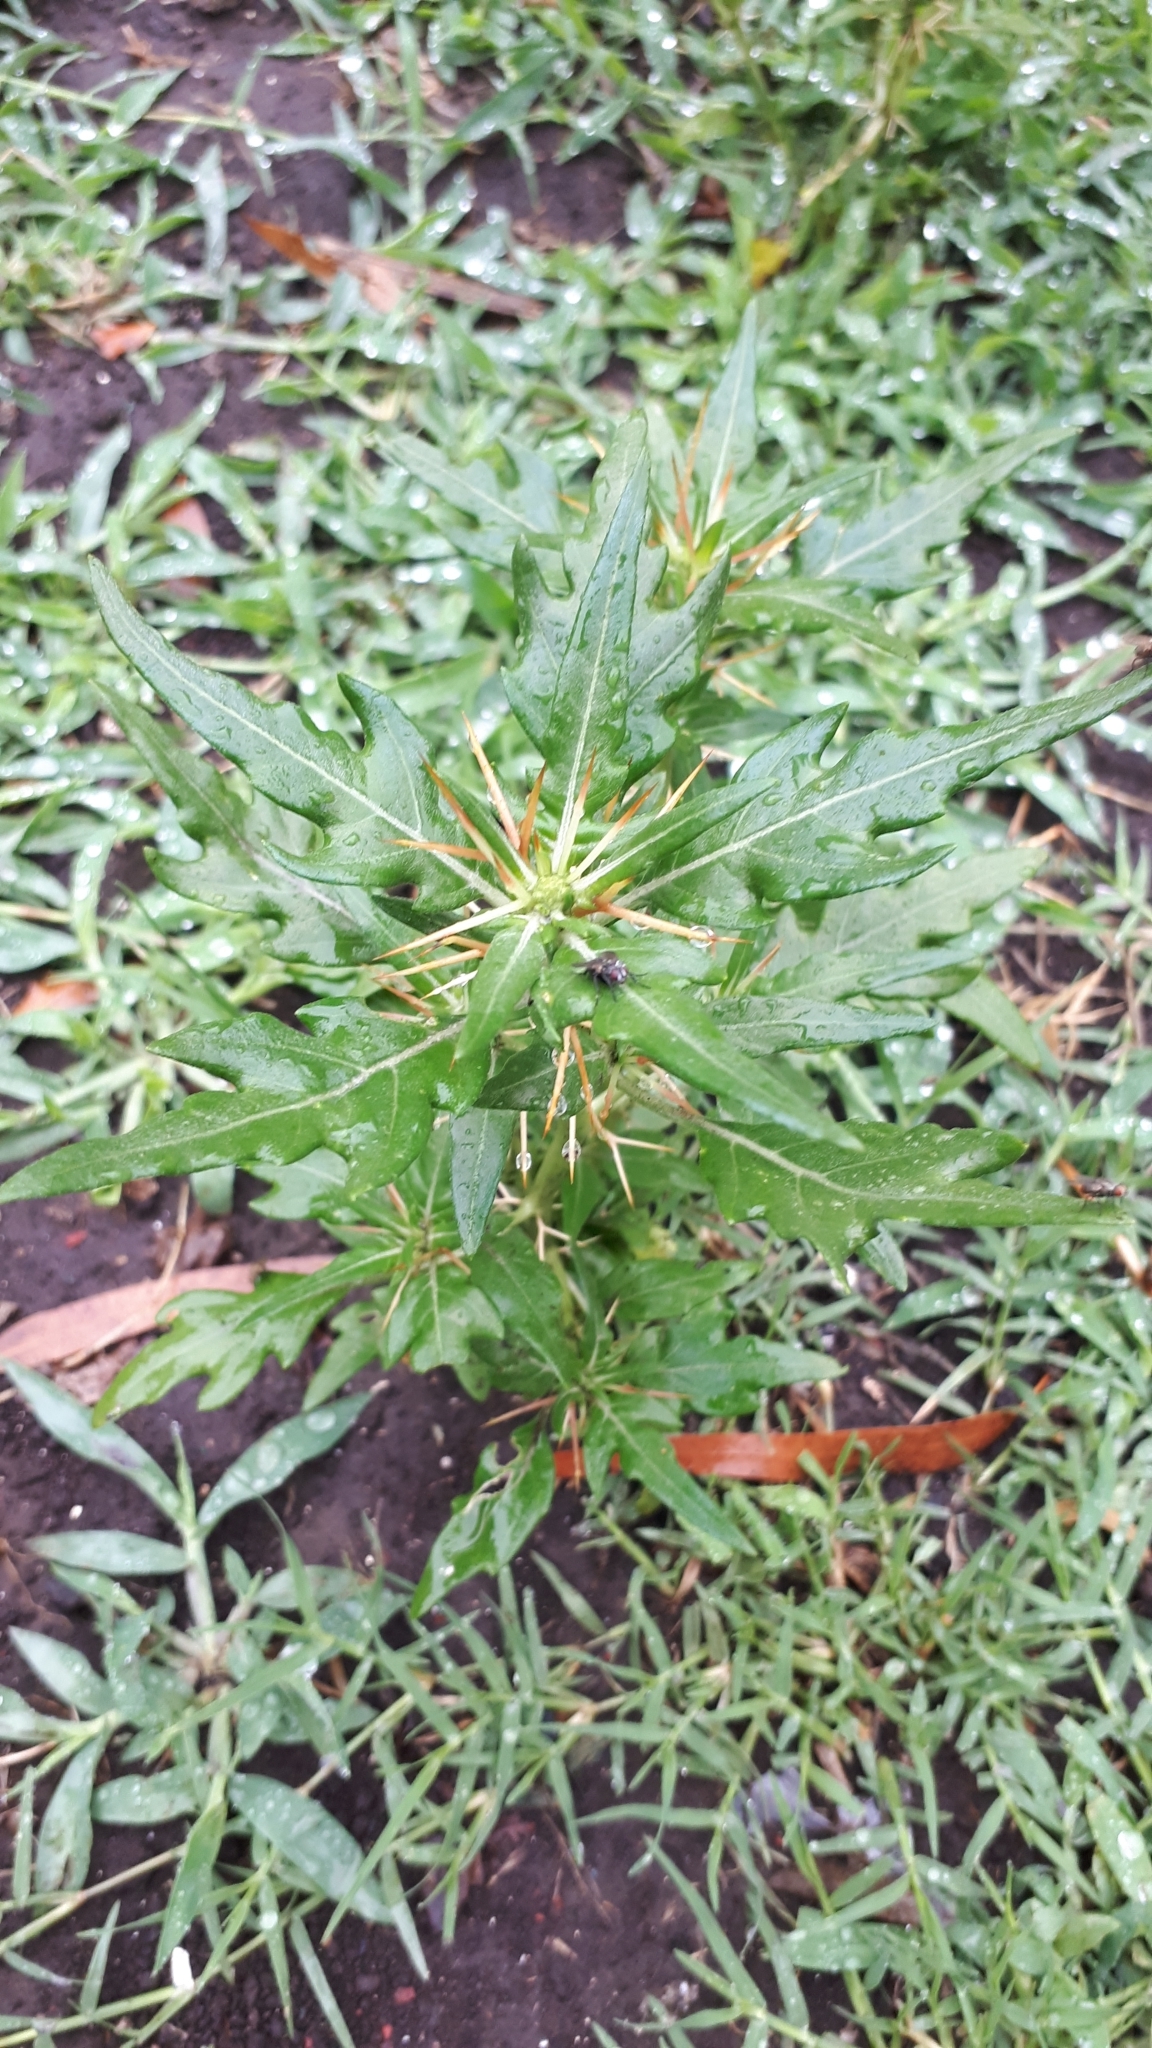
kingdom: Plantae
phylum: Tracheophyta
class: Magnoliopsida
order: Asterales
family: Asteraceae
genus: Xanthium
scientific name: Xanthium spinosum
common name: Spiny cocklebur
